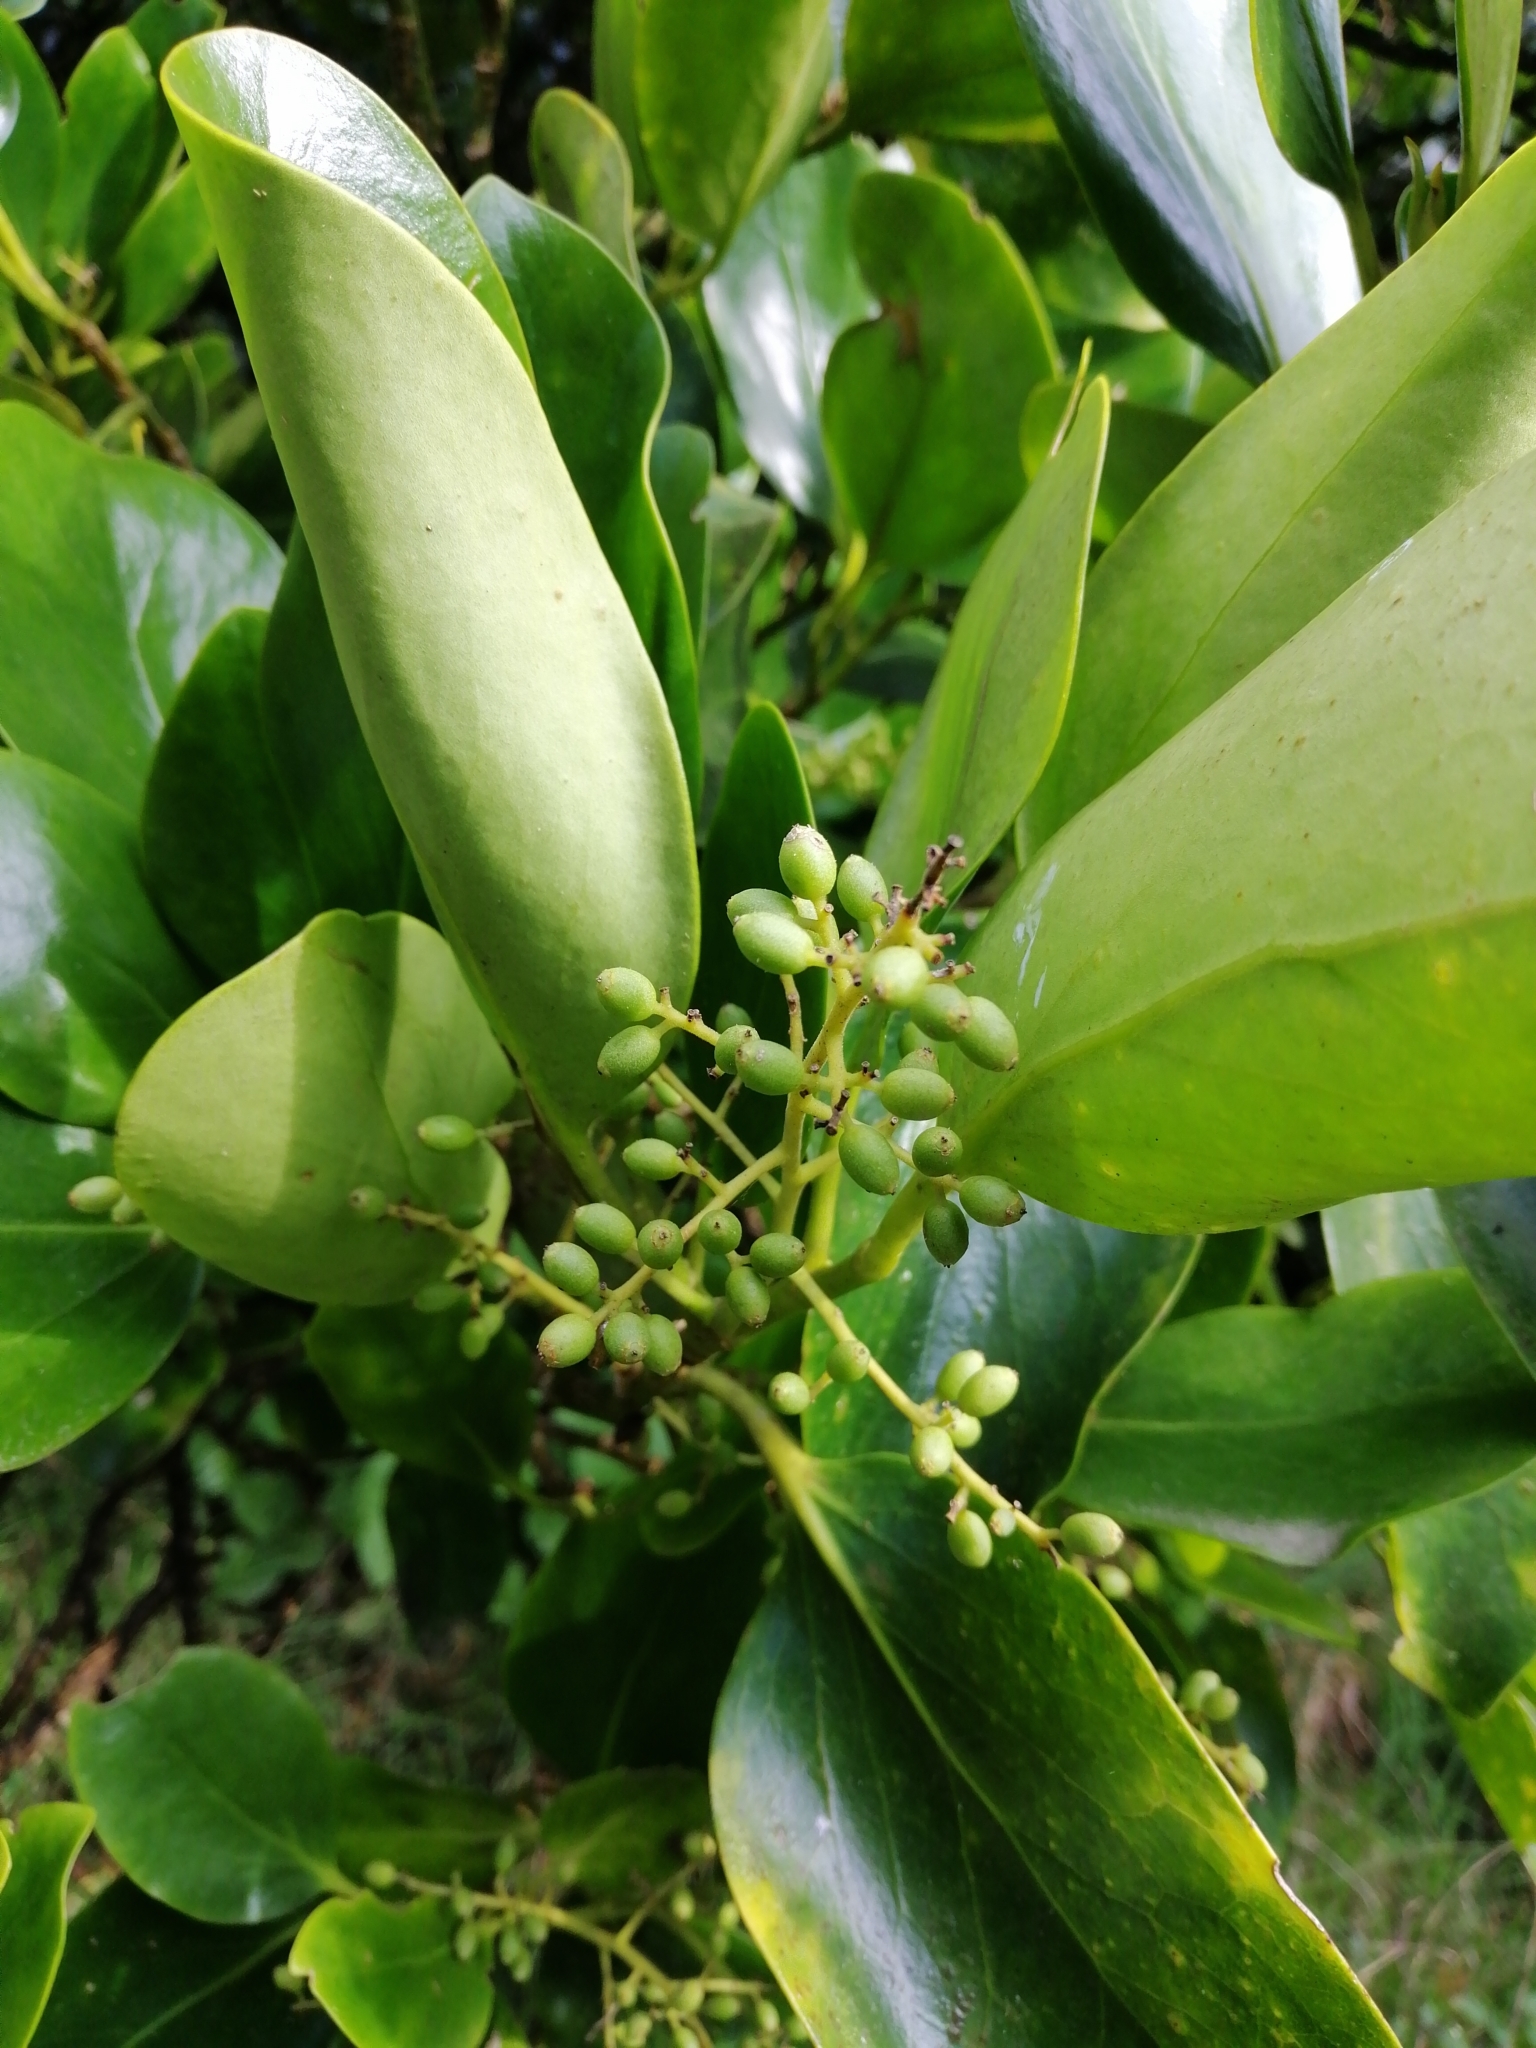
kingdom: Plantae
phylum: Tracheophyta
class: Magnoliopsida
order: Apiales
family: Griseliniaceae
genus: Griselinia
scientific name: Griselinia littoralis
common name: New zealand broadleaf
